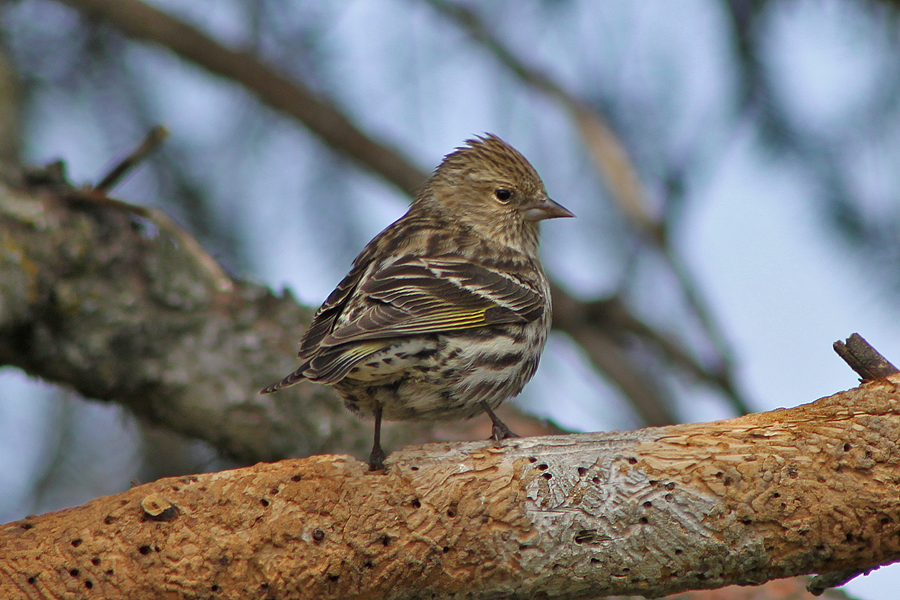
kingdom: Animalia
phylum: Chordata
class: Aves
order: Passeriformes
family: Fringillidae
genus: Spinus
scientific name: Spinus pinus
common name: Pine siskin
